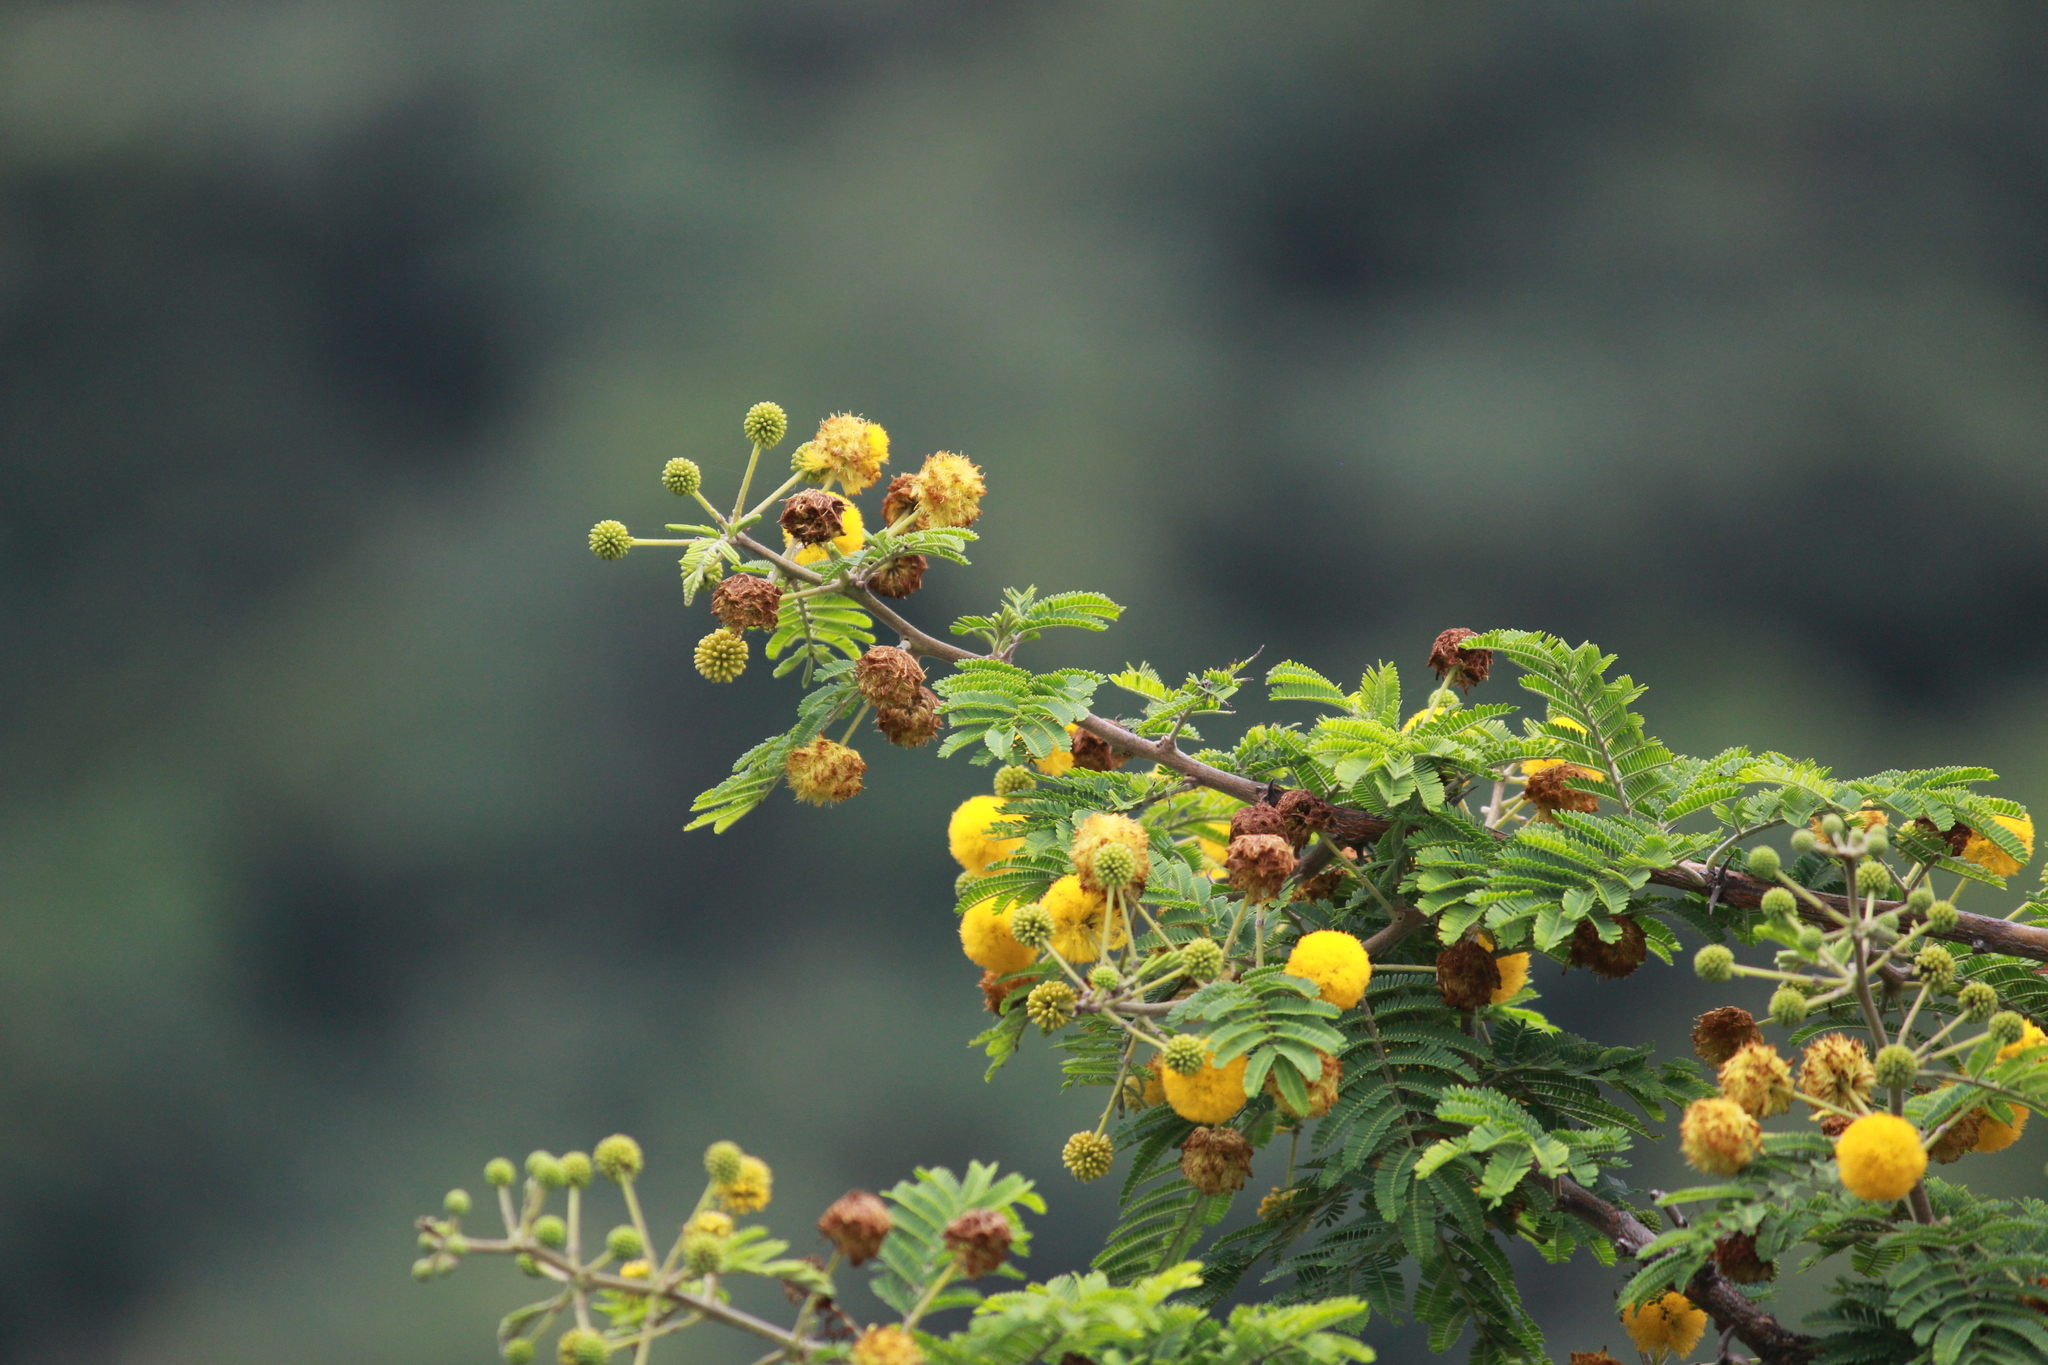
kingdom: Plantae
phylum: Tracheophyta
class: Magnoliopsida
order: Fabales
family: Fabaceae
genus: Vachellia
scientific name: Vachellia nilotica
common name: Arabic gumtree
